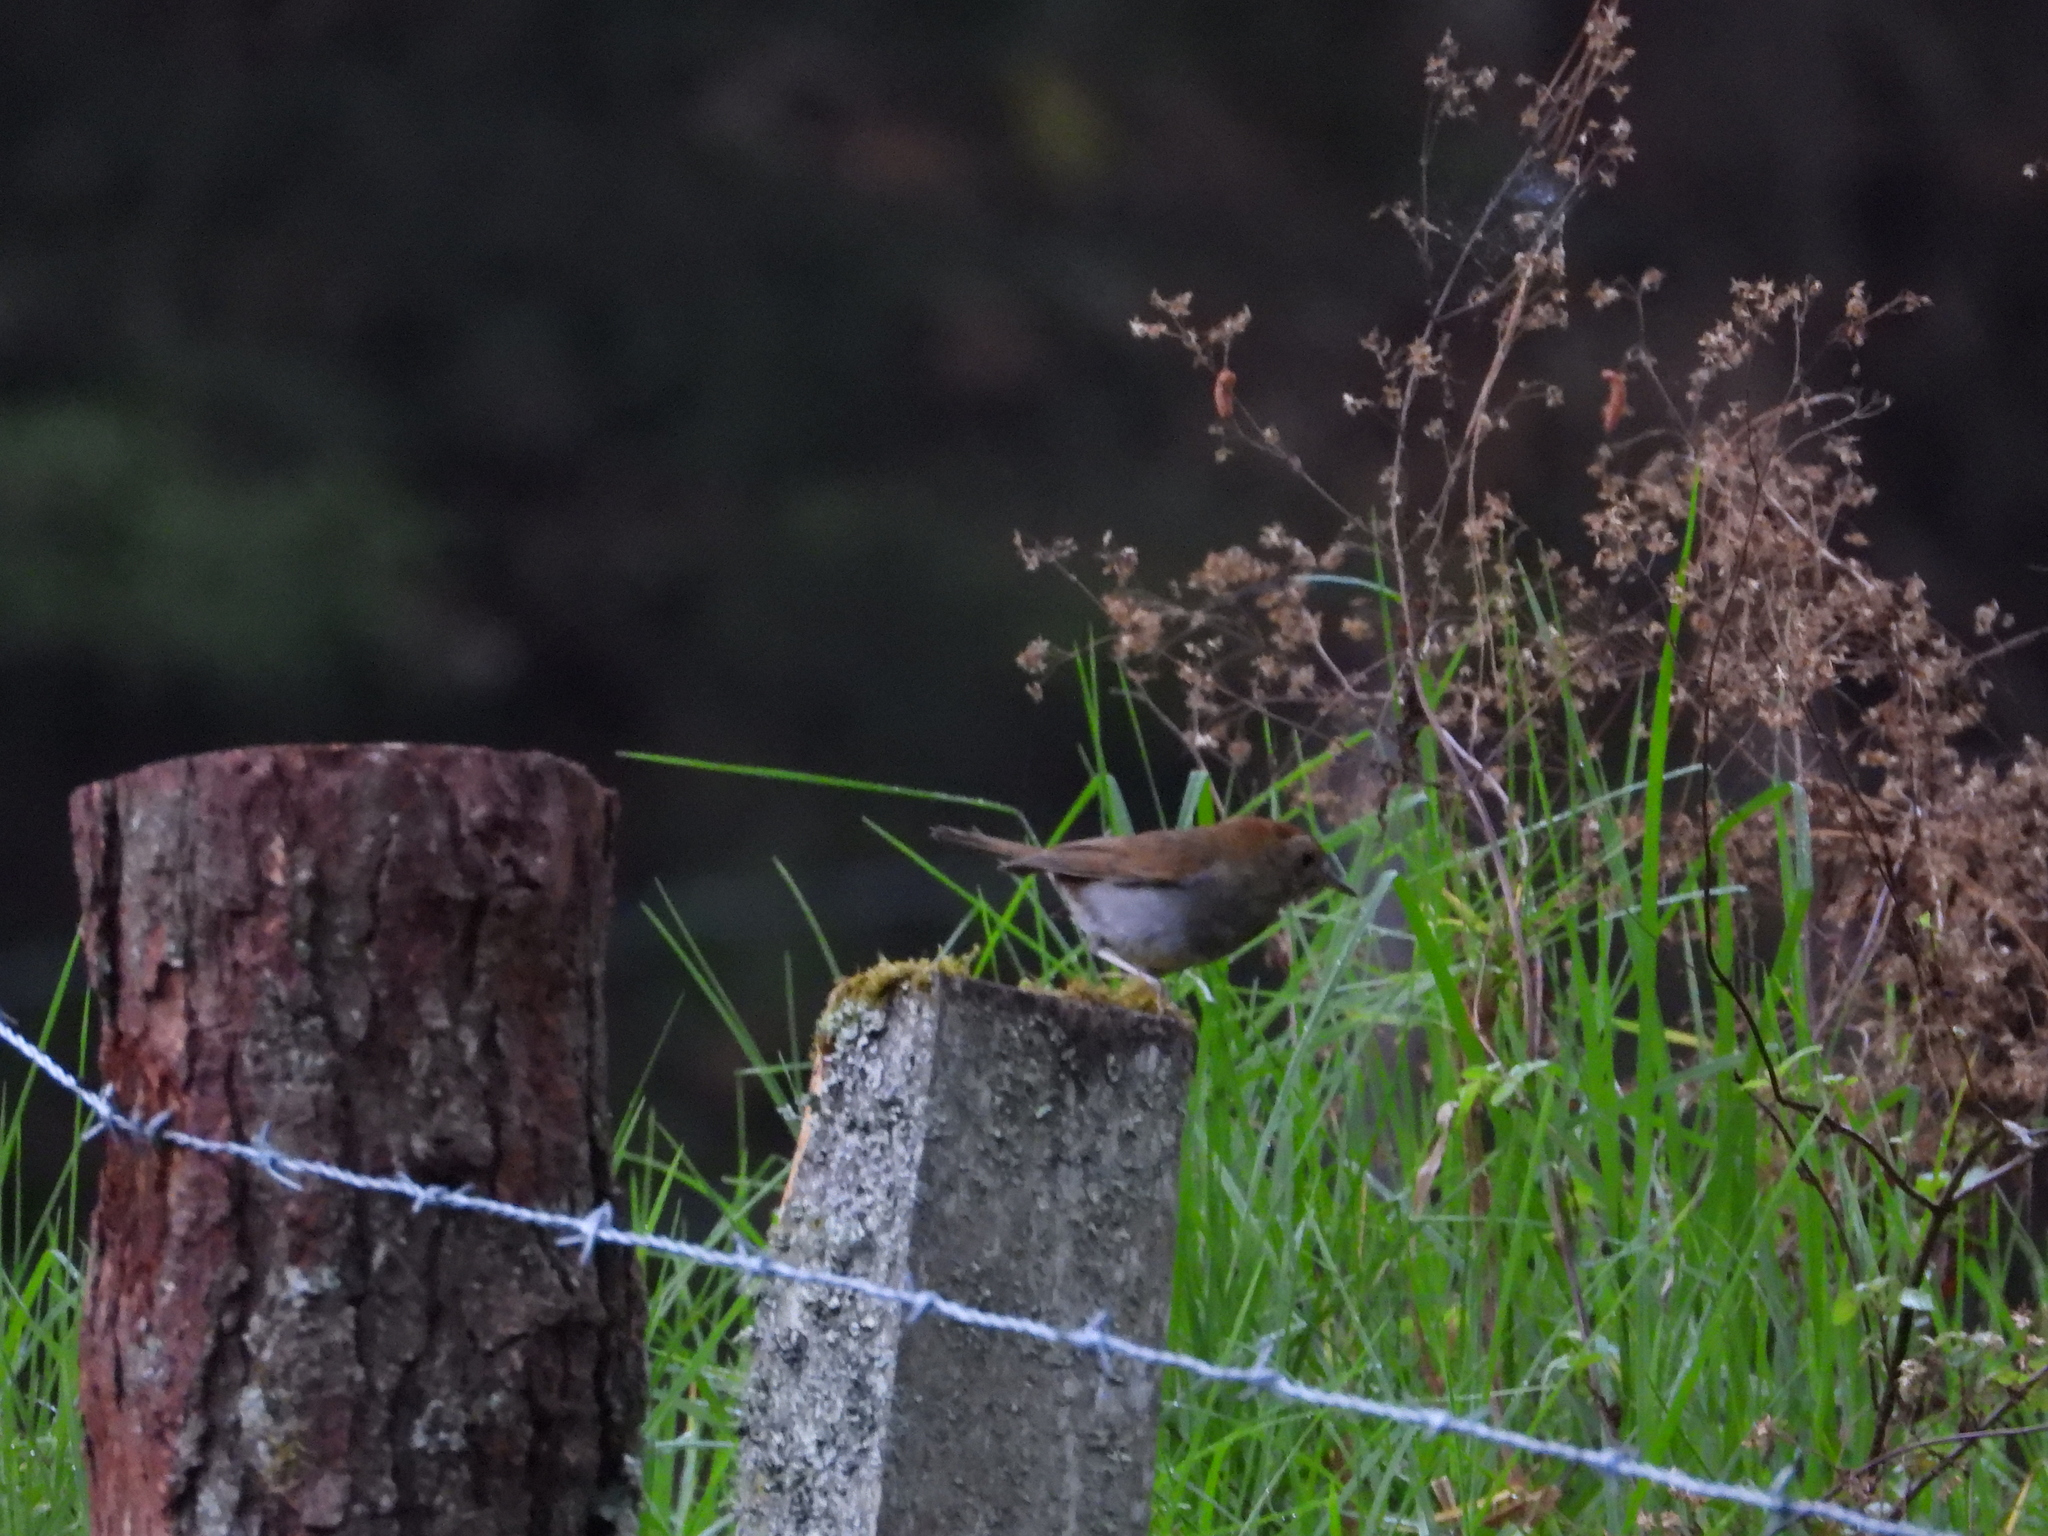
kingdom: Animalia
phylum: Chordata
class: Aves
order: Passeriformes
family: Turdidae
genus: Catharus
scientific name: Catharus occidentalis
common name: Russet nightingale-thrush
